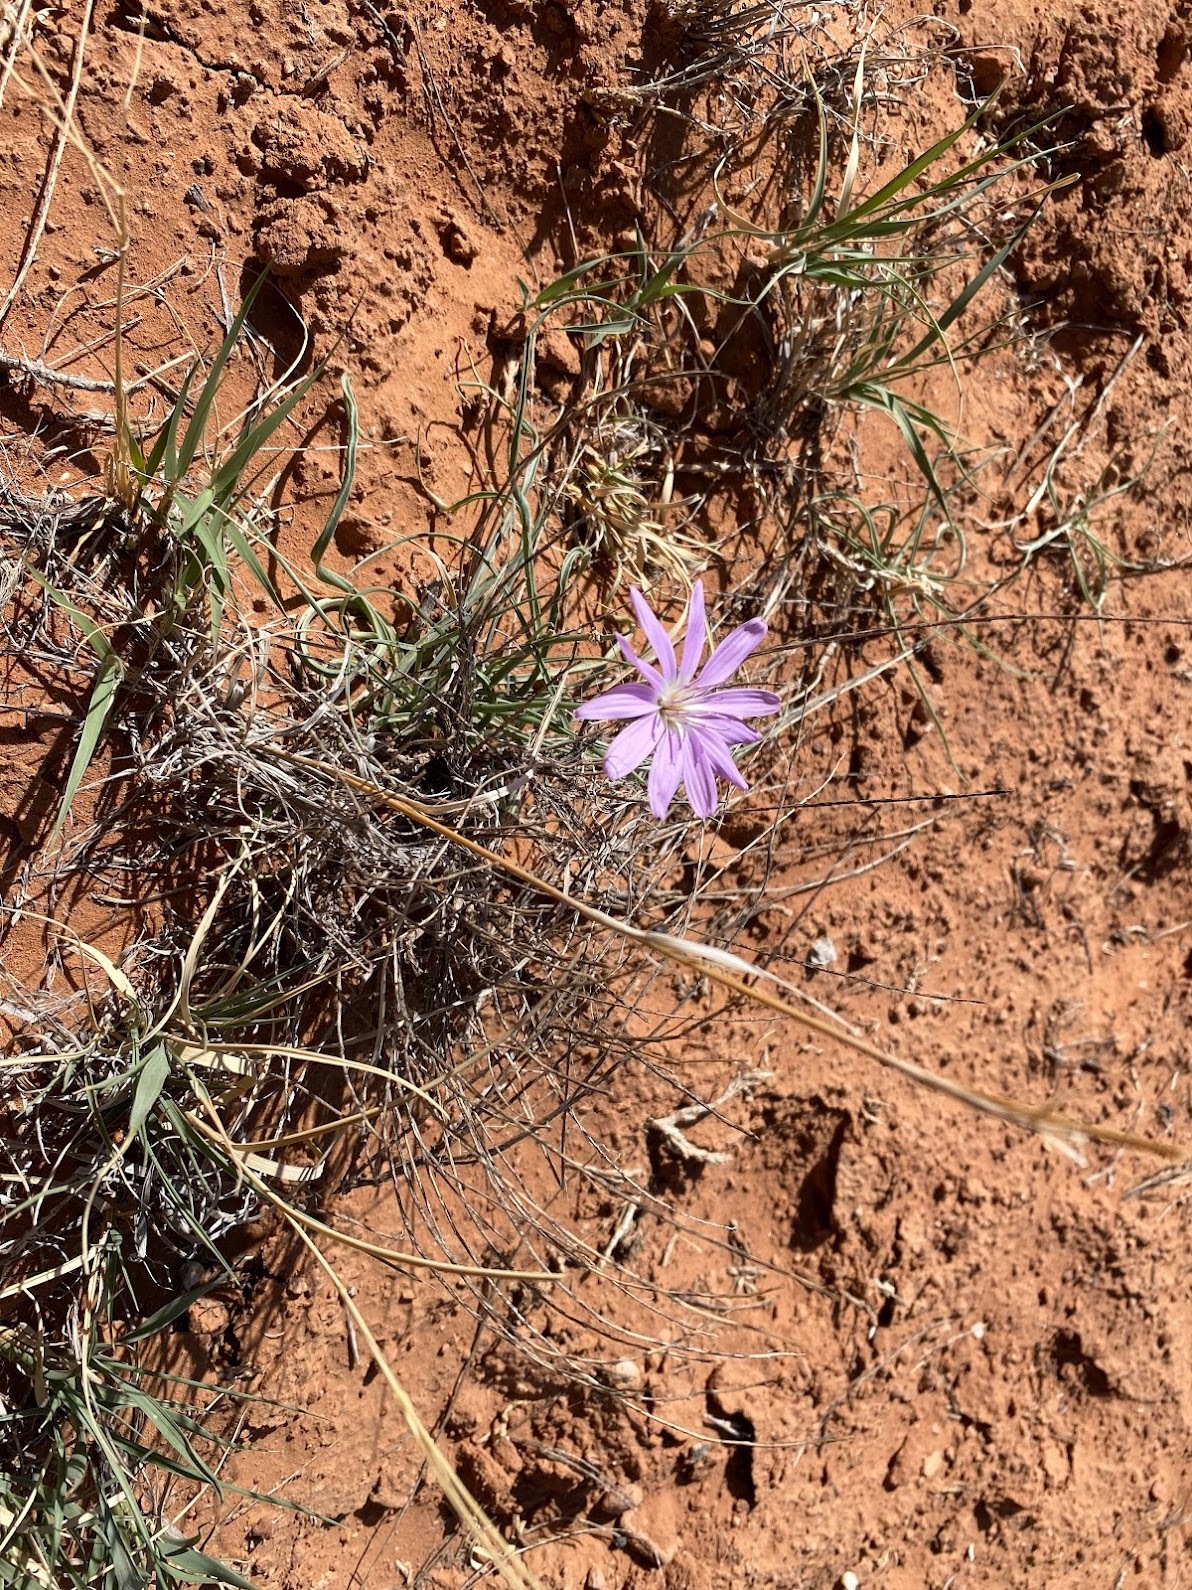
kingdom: Plantae
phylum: Tracheophyta
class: Magnoliopsida
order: Asterales
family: Asteraceae
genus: Lygodesmia
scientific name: Lygodesmia grandiflora
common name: Showy rush-pink
